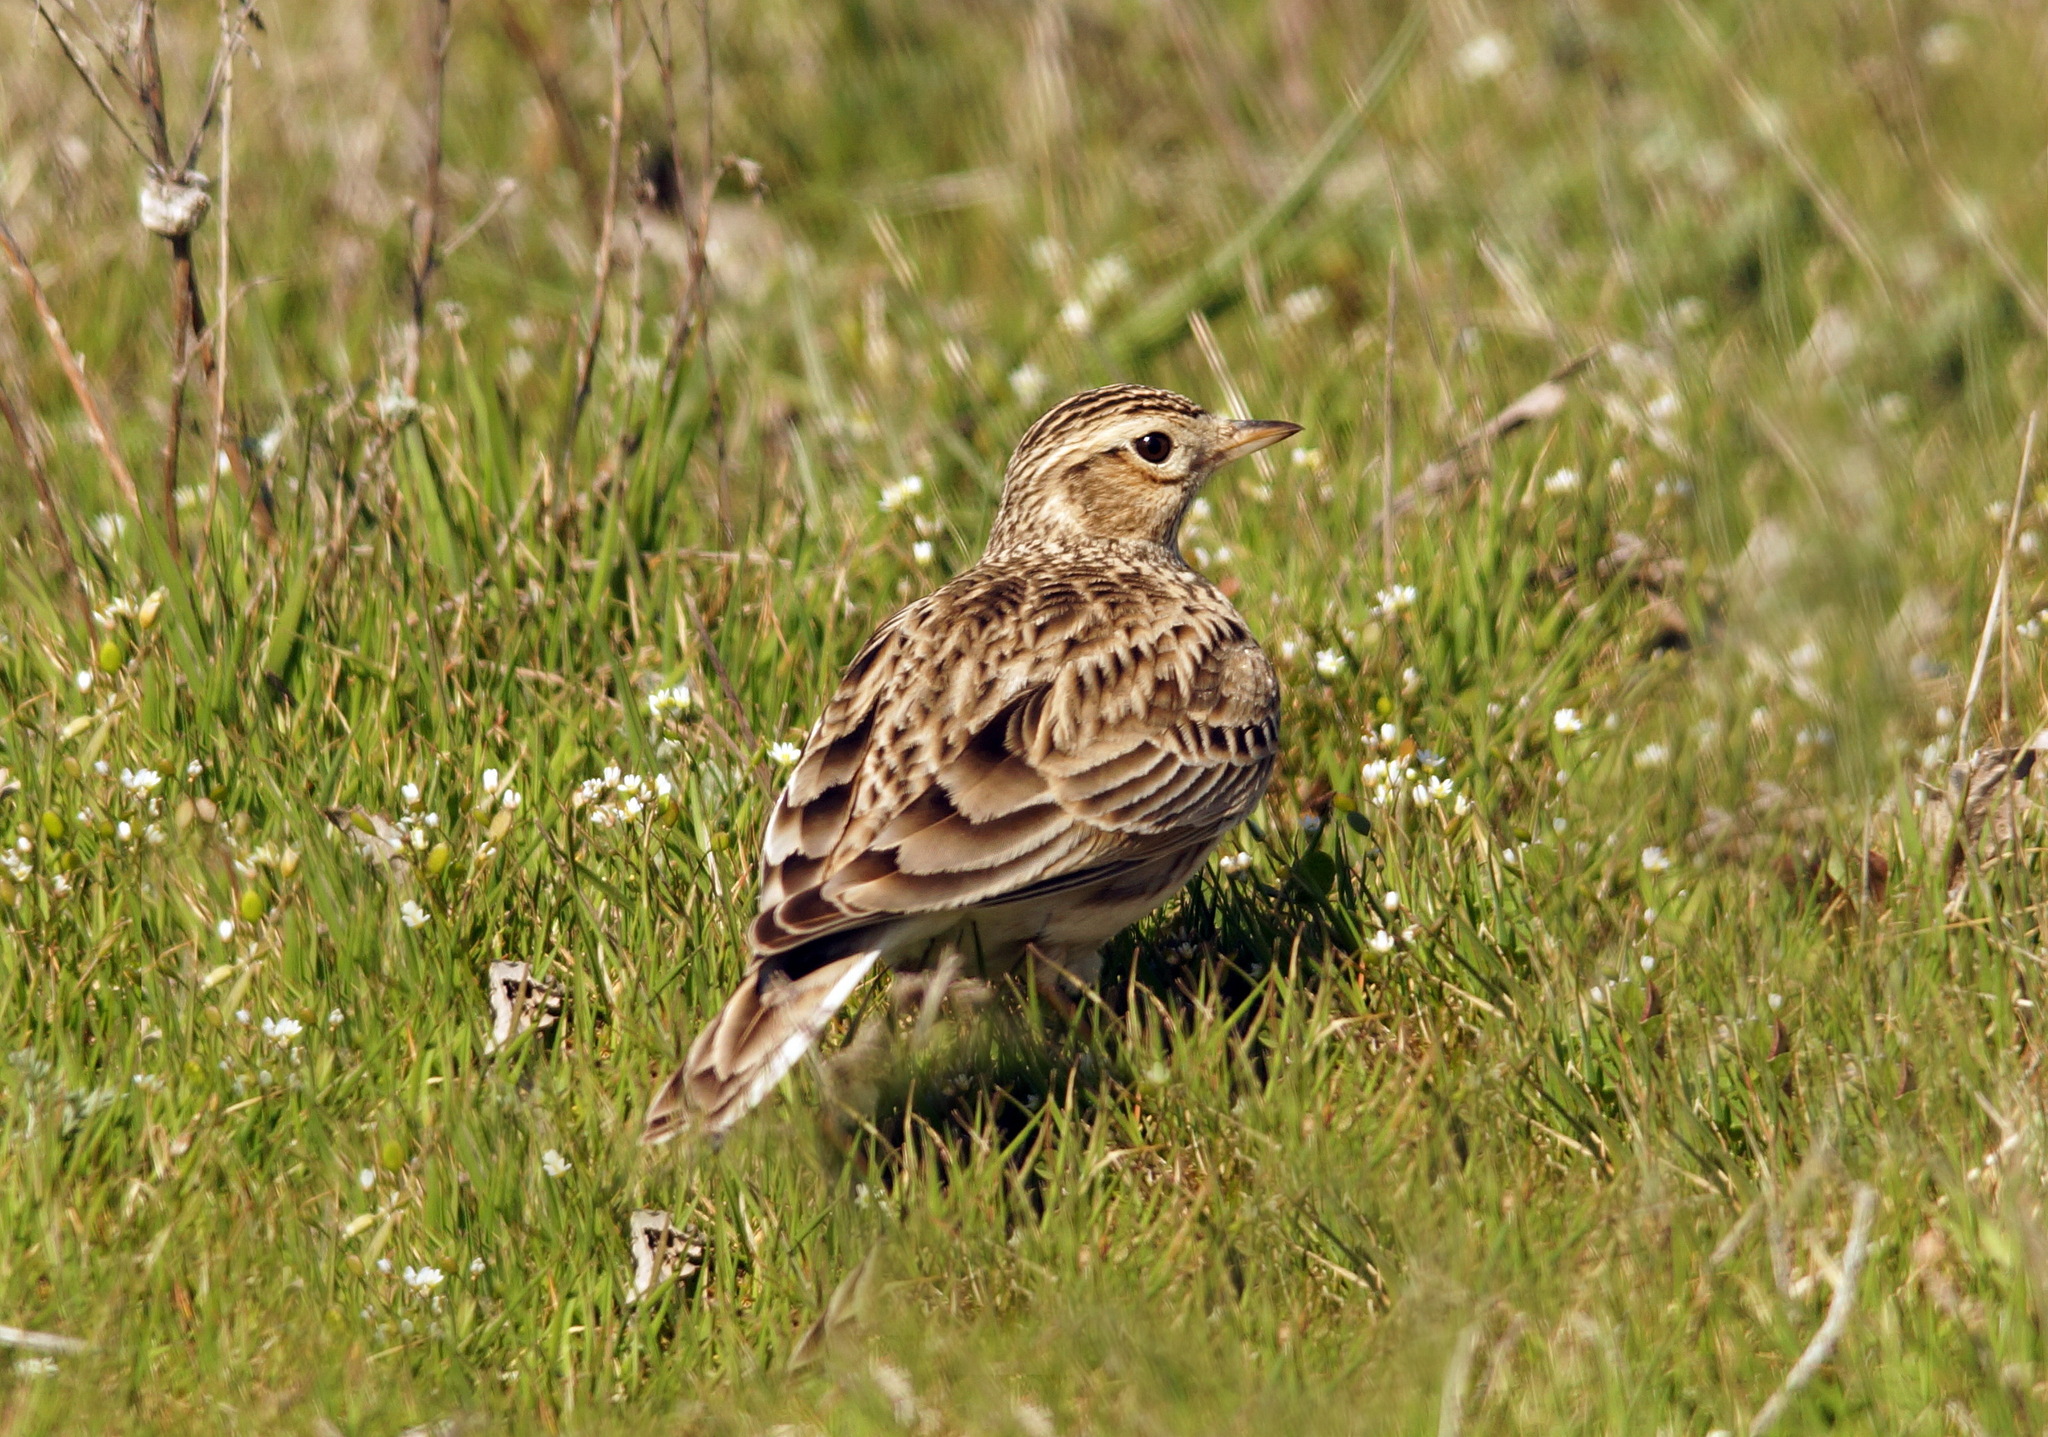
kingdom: Animalia
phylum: Chordata
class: Aves
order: Passeriformes
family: Alaudidae
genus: Alauda
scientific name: Alauda arvensis
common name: Eurasian skylark
